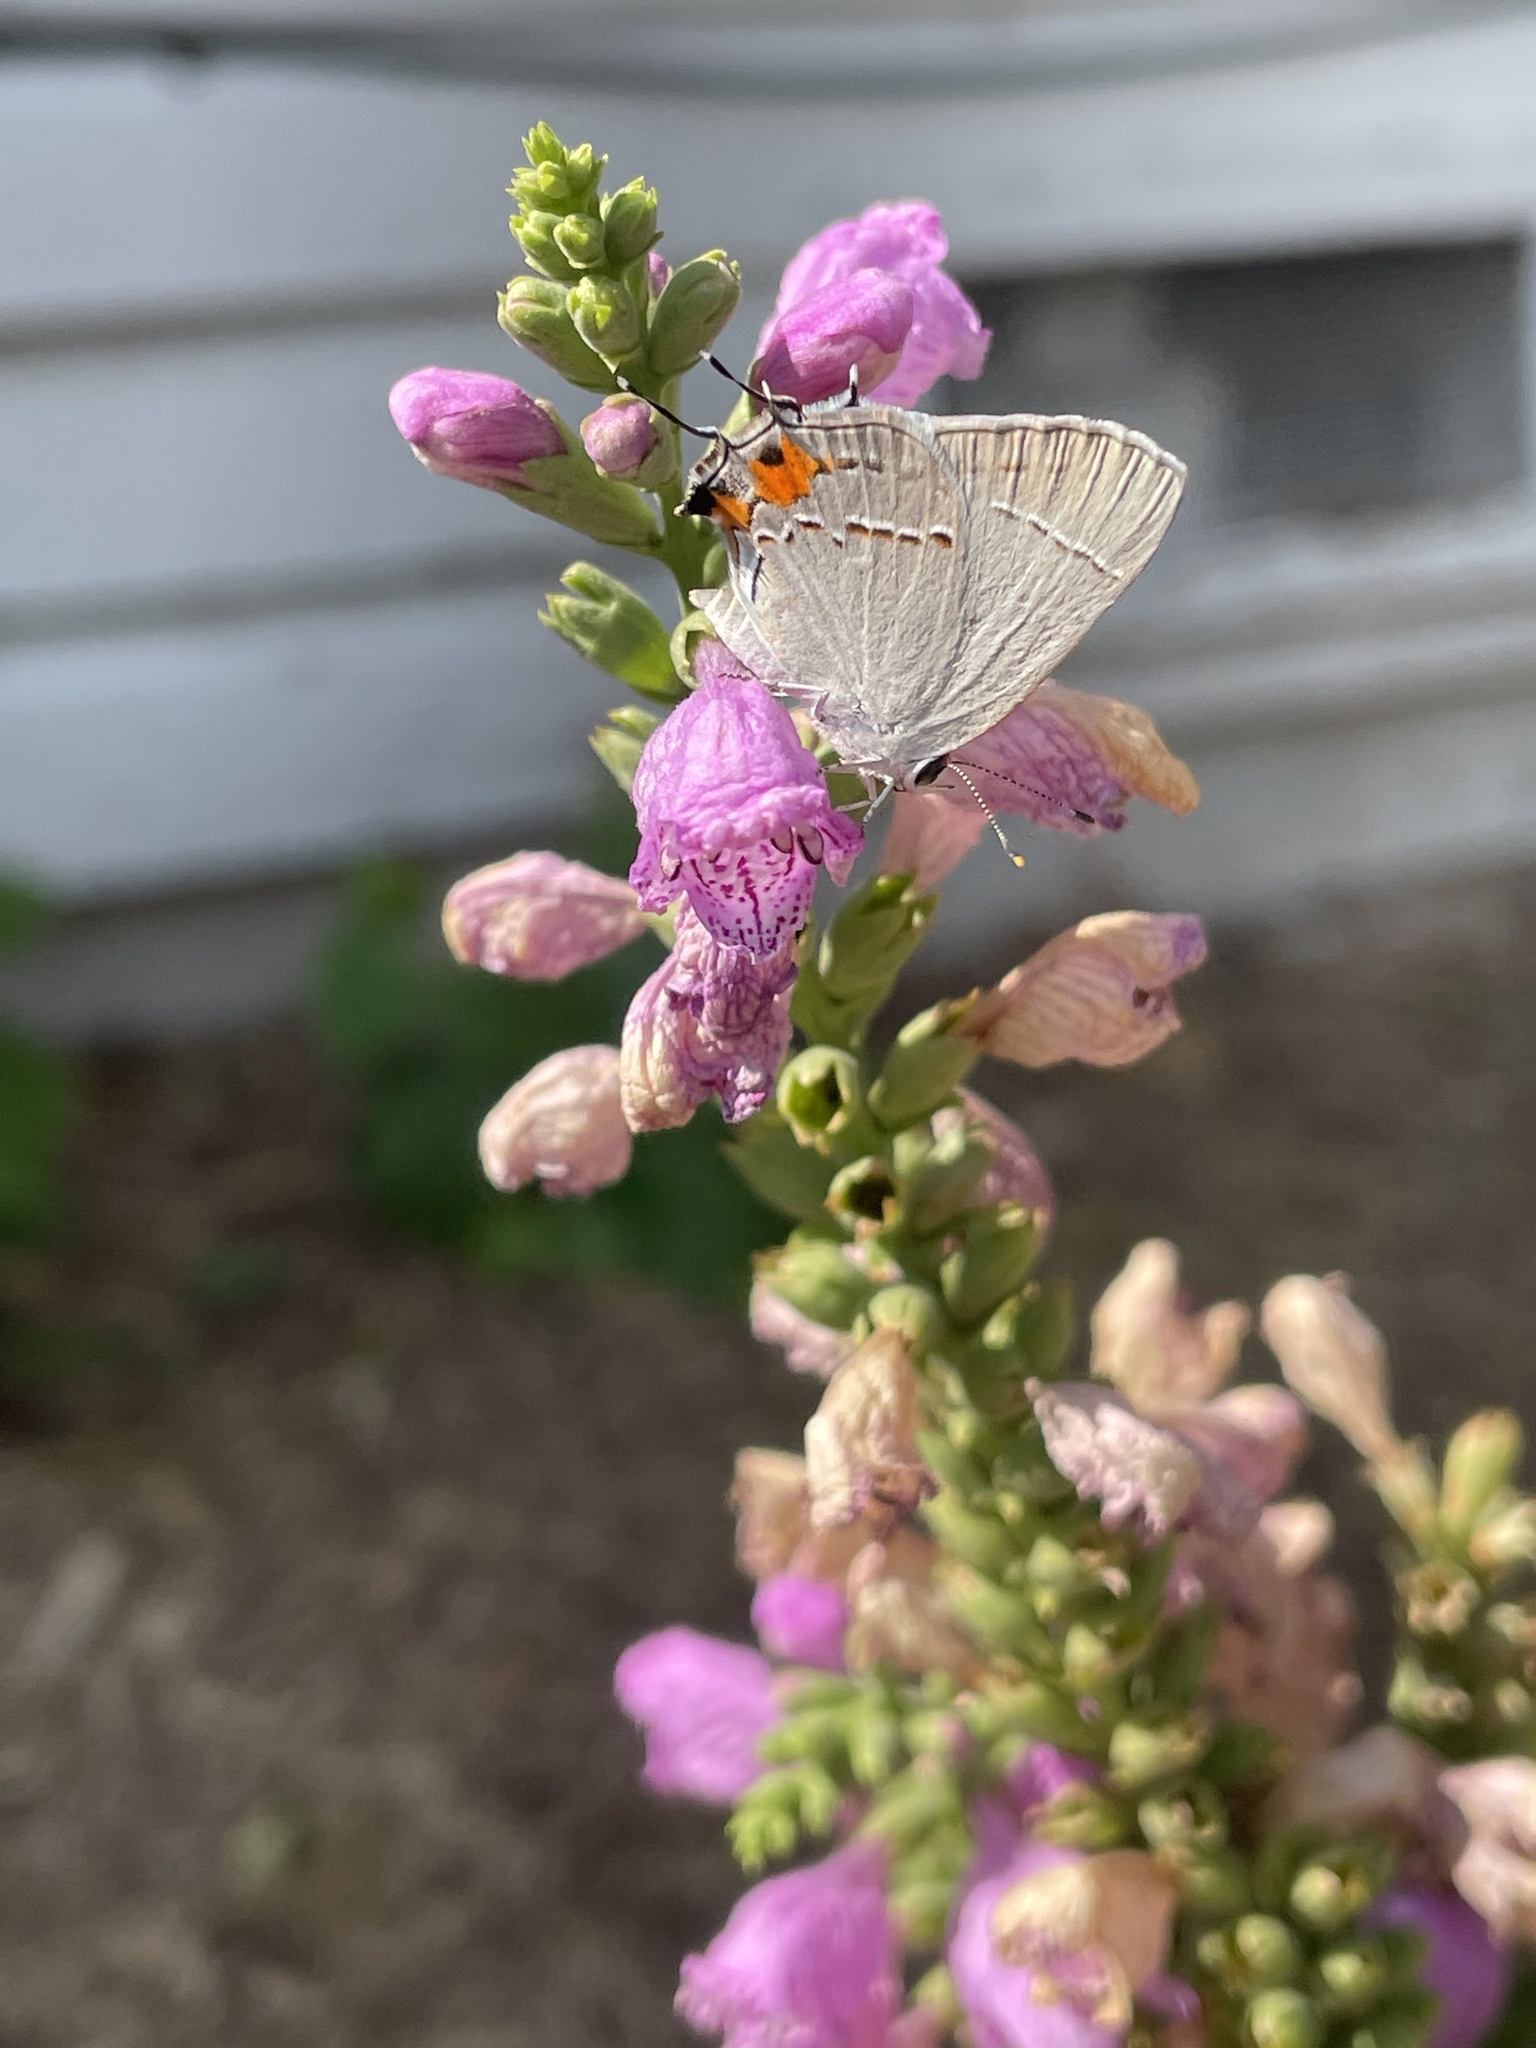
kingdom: Animalia
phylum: Arthropoda
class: Insecta
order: Lepidoptera
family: Lycaenidae
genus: Strymon
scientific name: Strymon melinus
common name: Gray hairstreak
